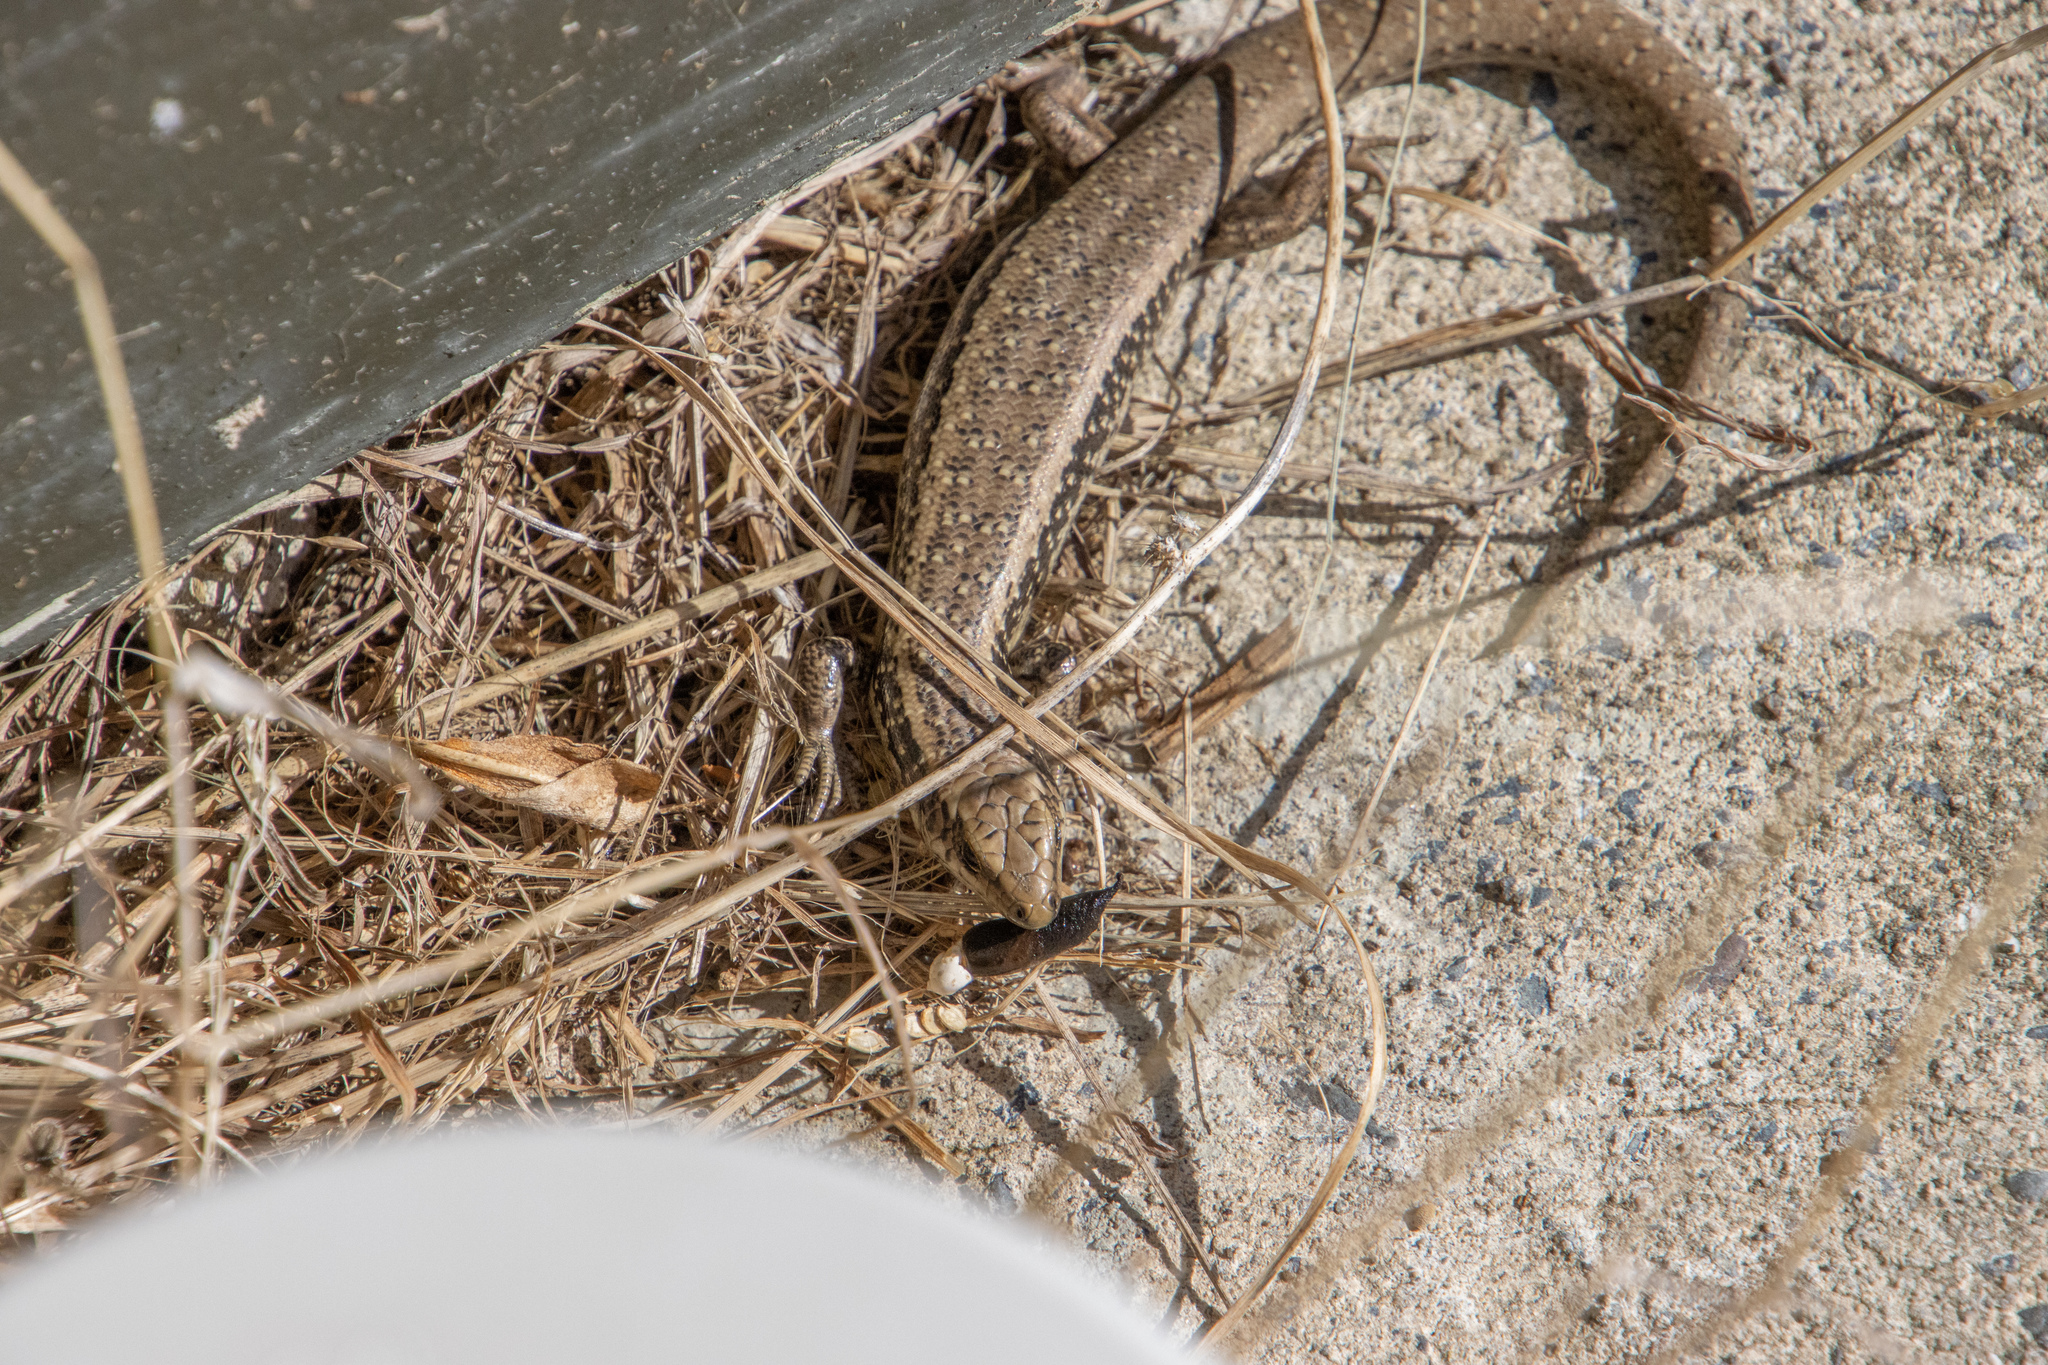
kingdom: Animalia
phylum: Chordata
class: Squamata
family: Scincidae
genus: Oligosoma
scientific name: Oligosoma kokowai
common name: Northern spotted skink
